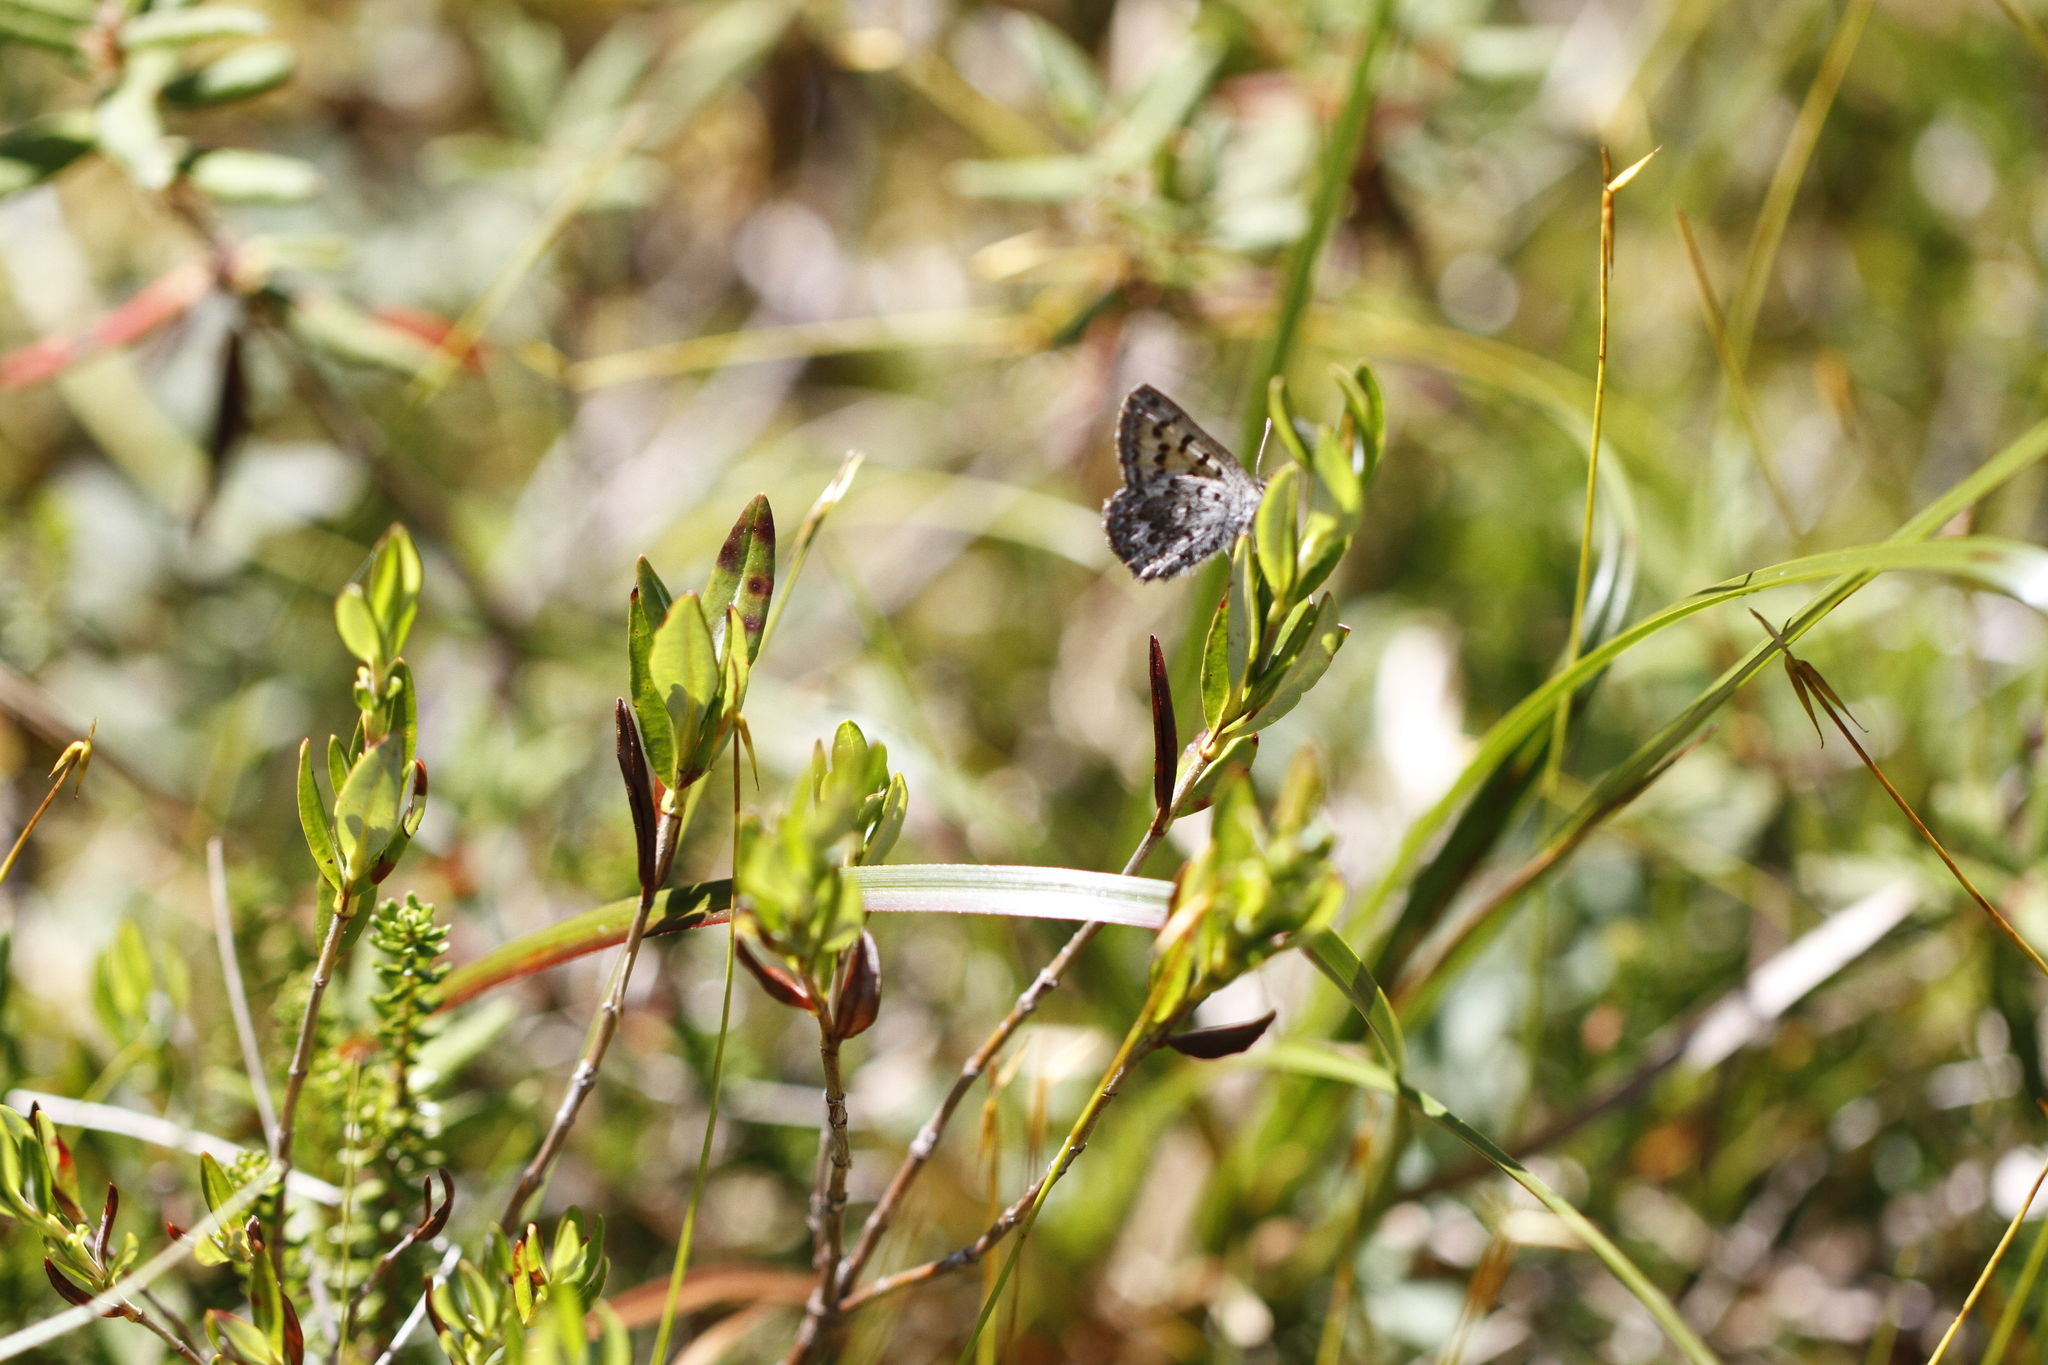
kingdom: Animalia
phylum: Arthropoda
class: Insecta
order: Lepidoptera
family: Lycaenidae
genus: Tharsalea
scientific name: Tharsalea mariposa
